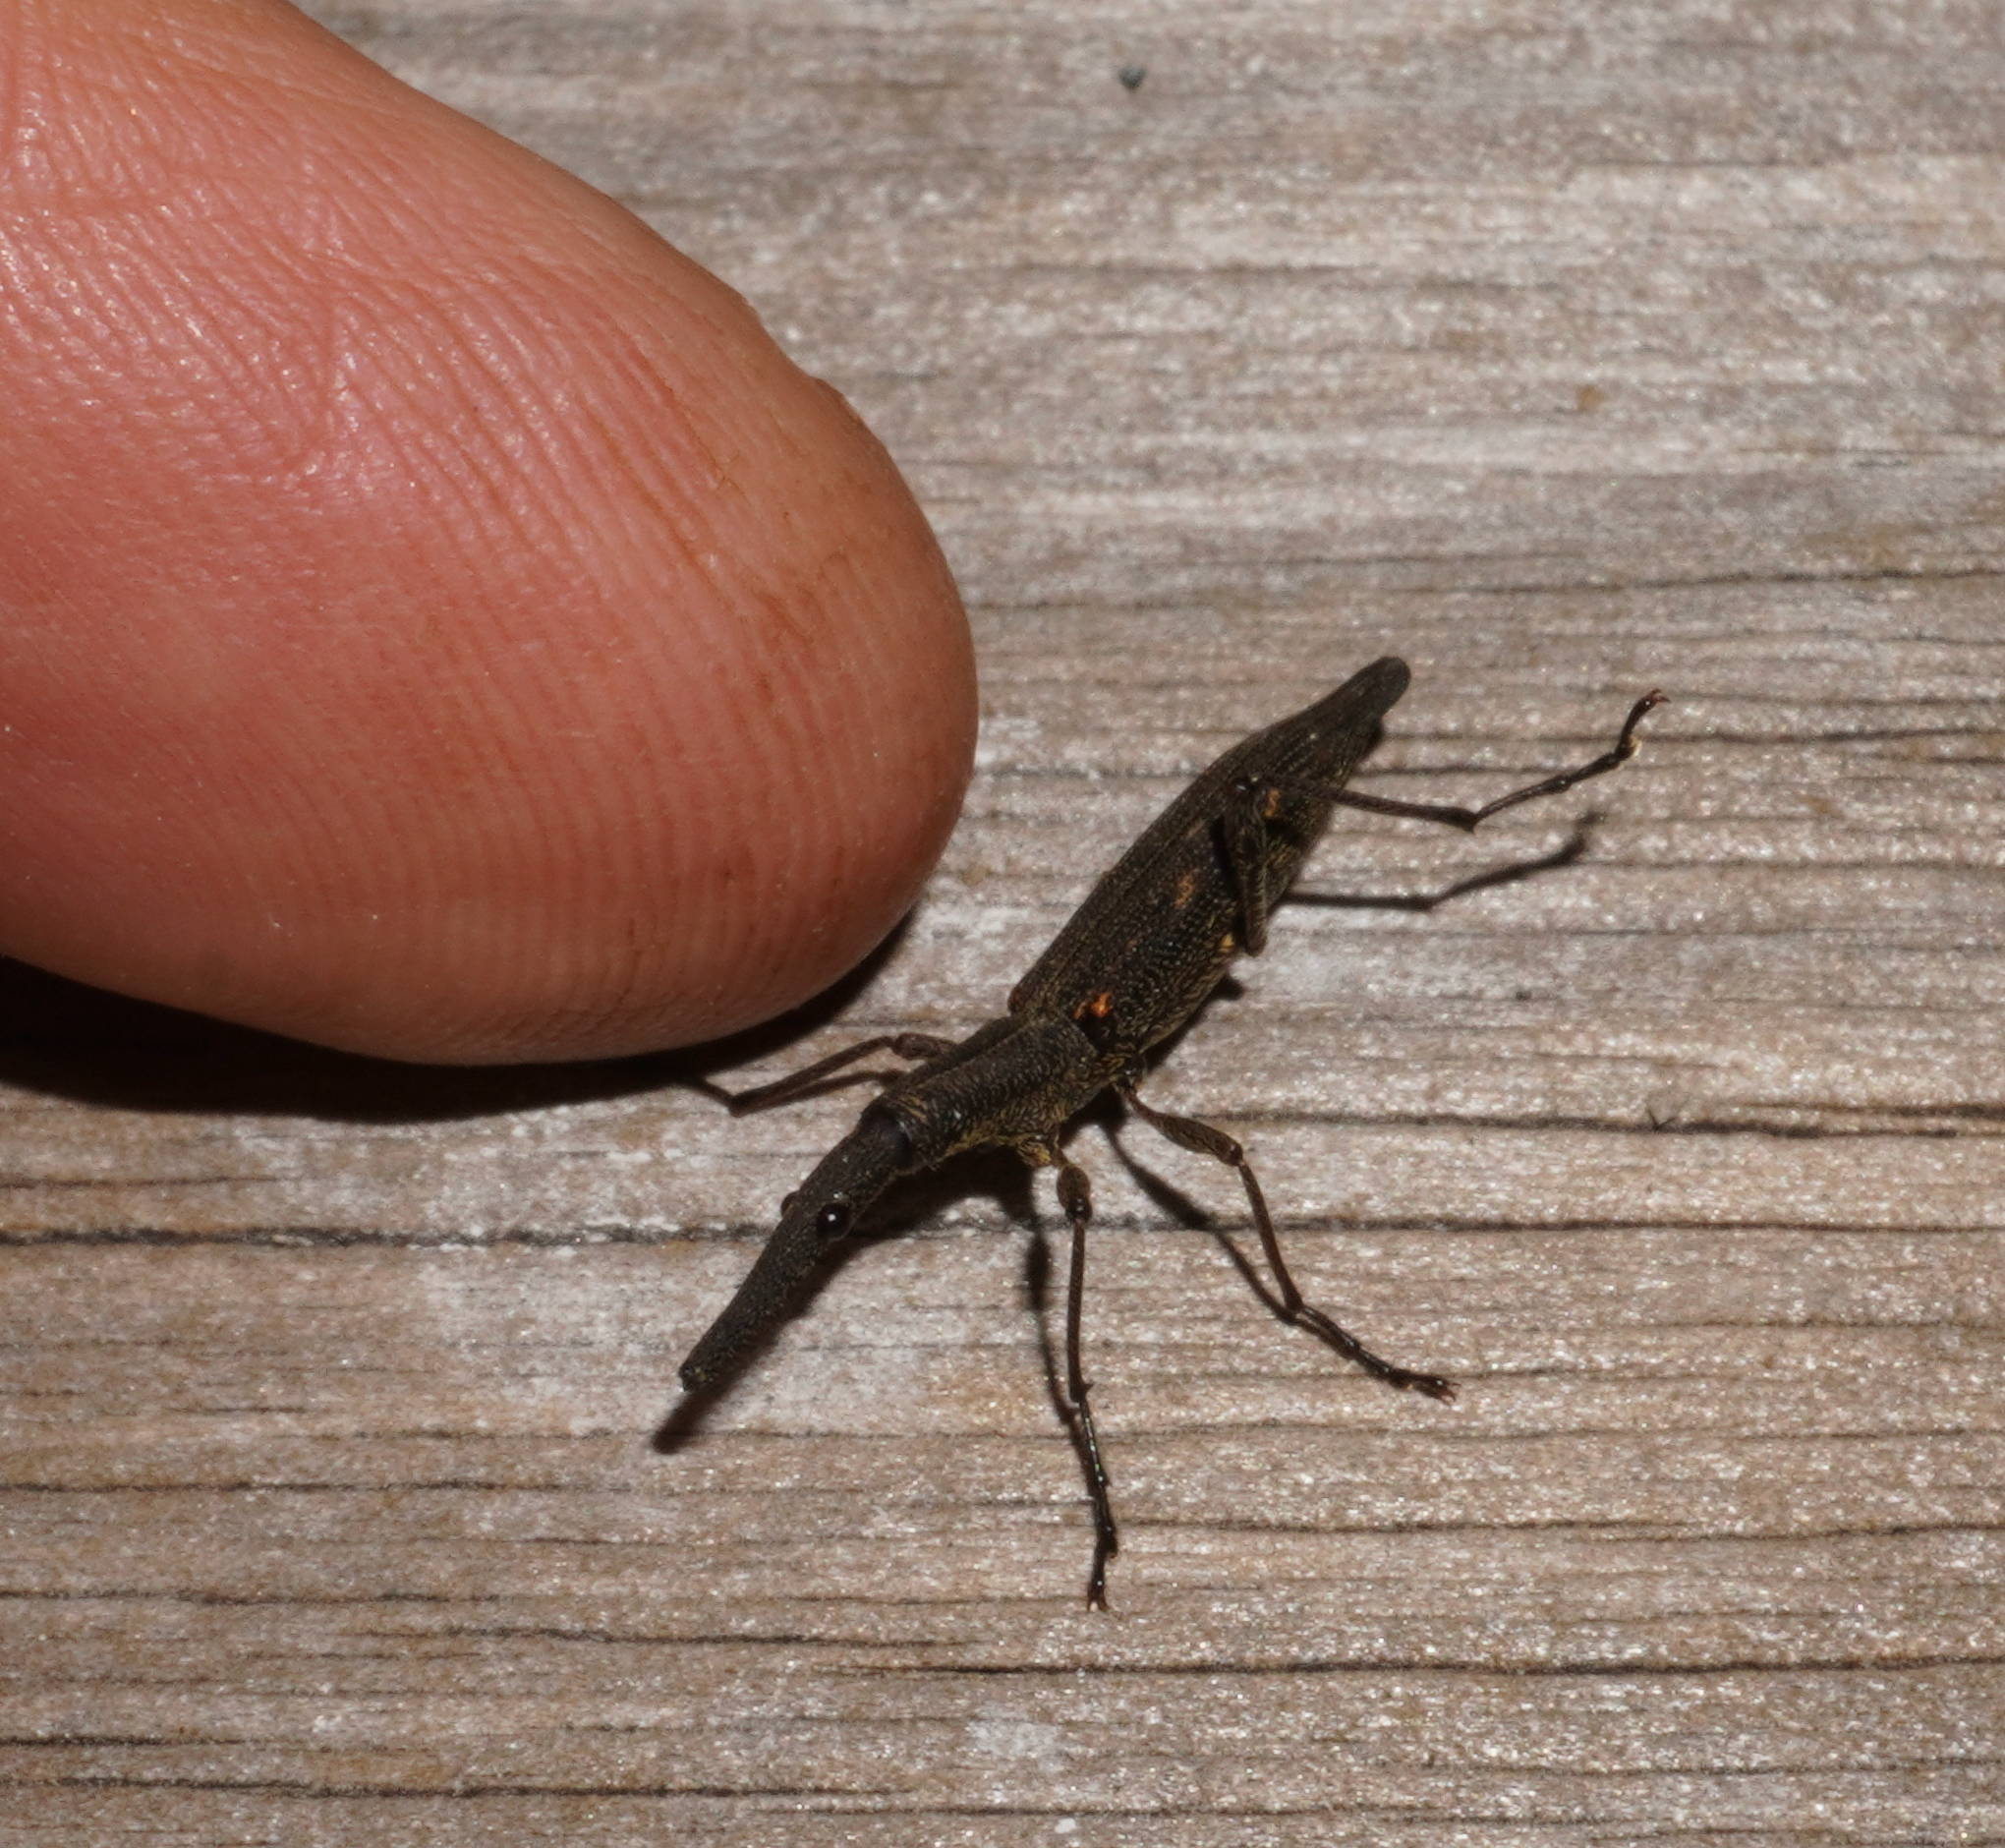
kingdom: Animalia
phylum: Arthropoda
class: Insecta
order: Coleoptera
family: Brentidae
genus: Lasiorhynchus
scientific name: Lasiorhynchus barbicornis
